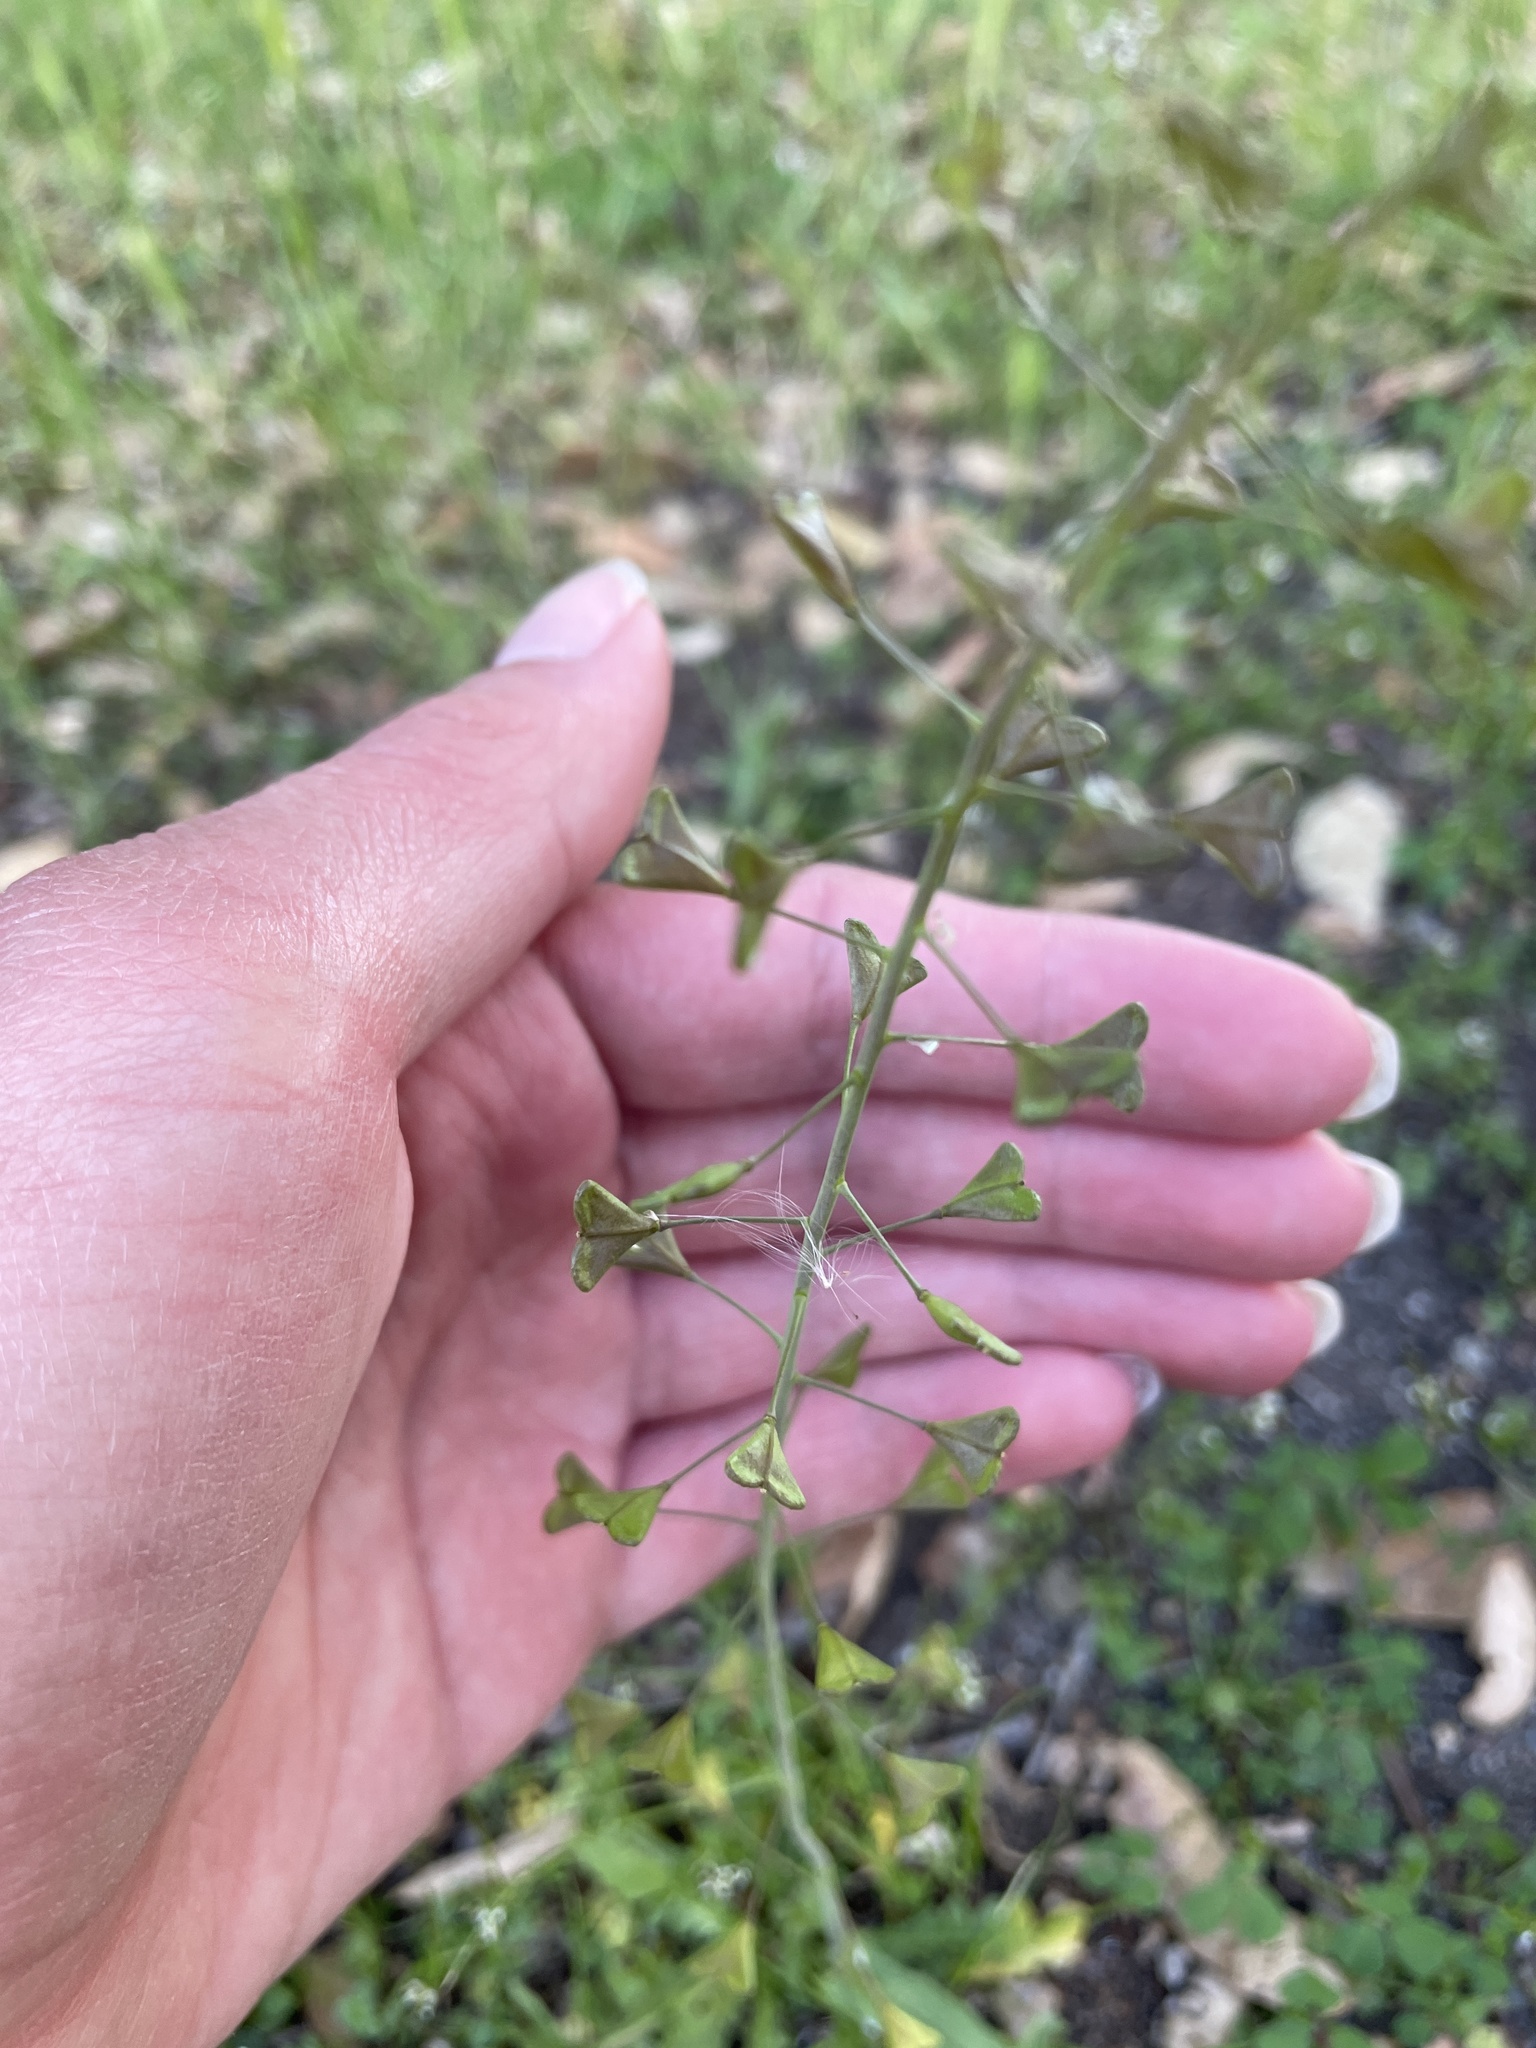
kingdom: Plantae
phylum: Tracheophyta
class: Magnoliopsida
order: Brassicales
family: Brassicaceae
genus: Capsella
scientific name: Capsella bursa-pastoris
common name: Shepherd's purse
